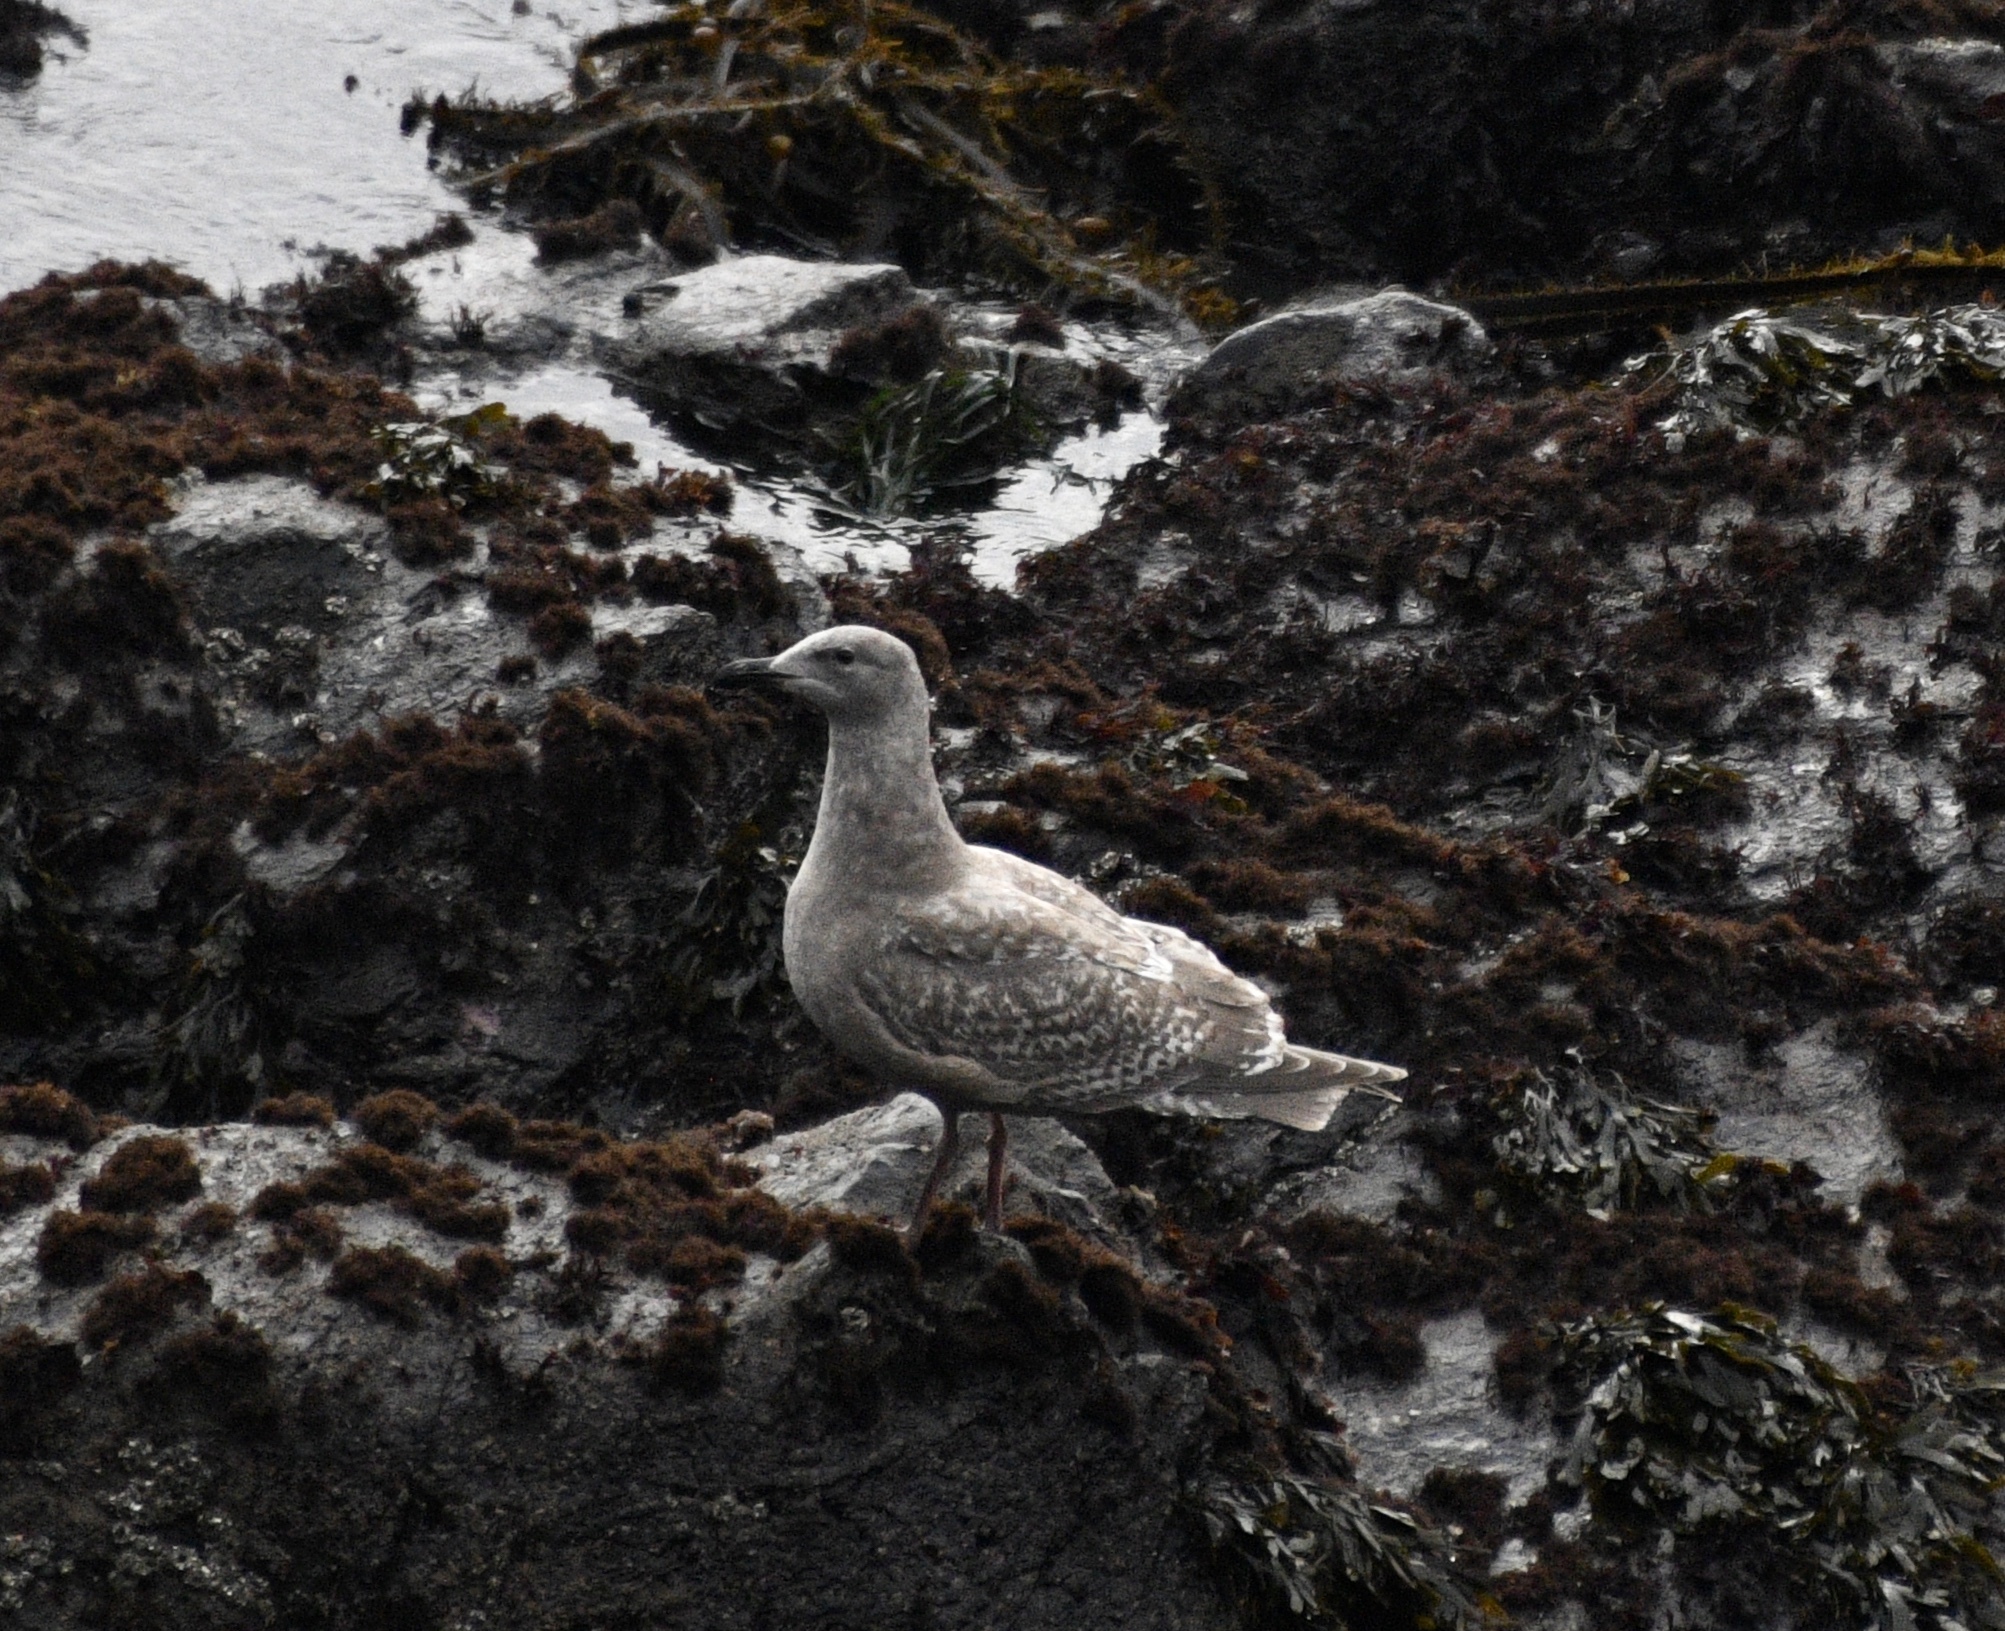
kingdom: Animalia
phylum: Chordata
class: Aves
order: Charadriiformes
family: Laridae
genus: Larus
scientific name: Larus
